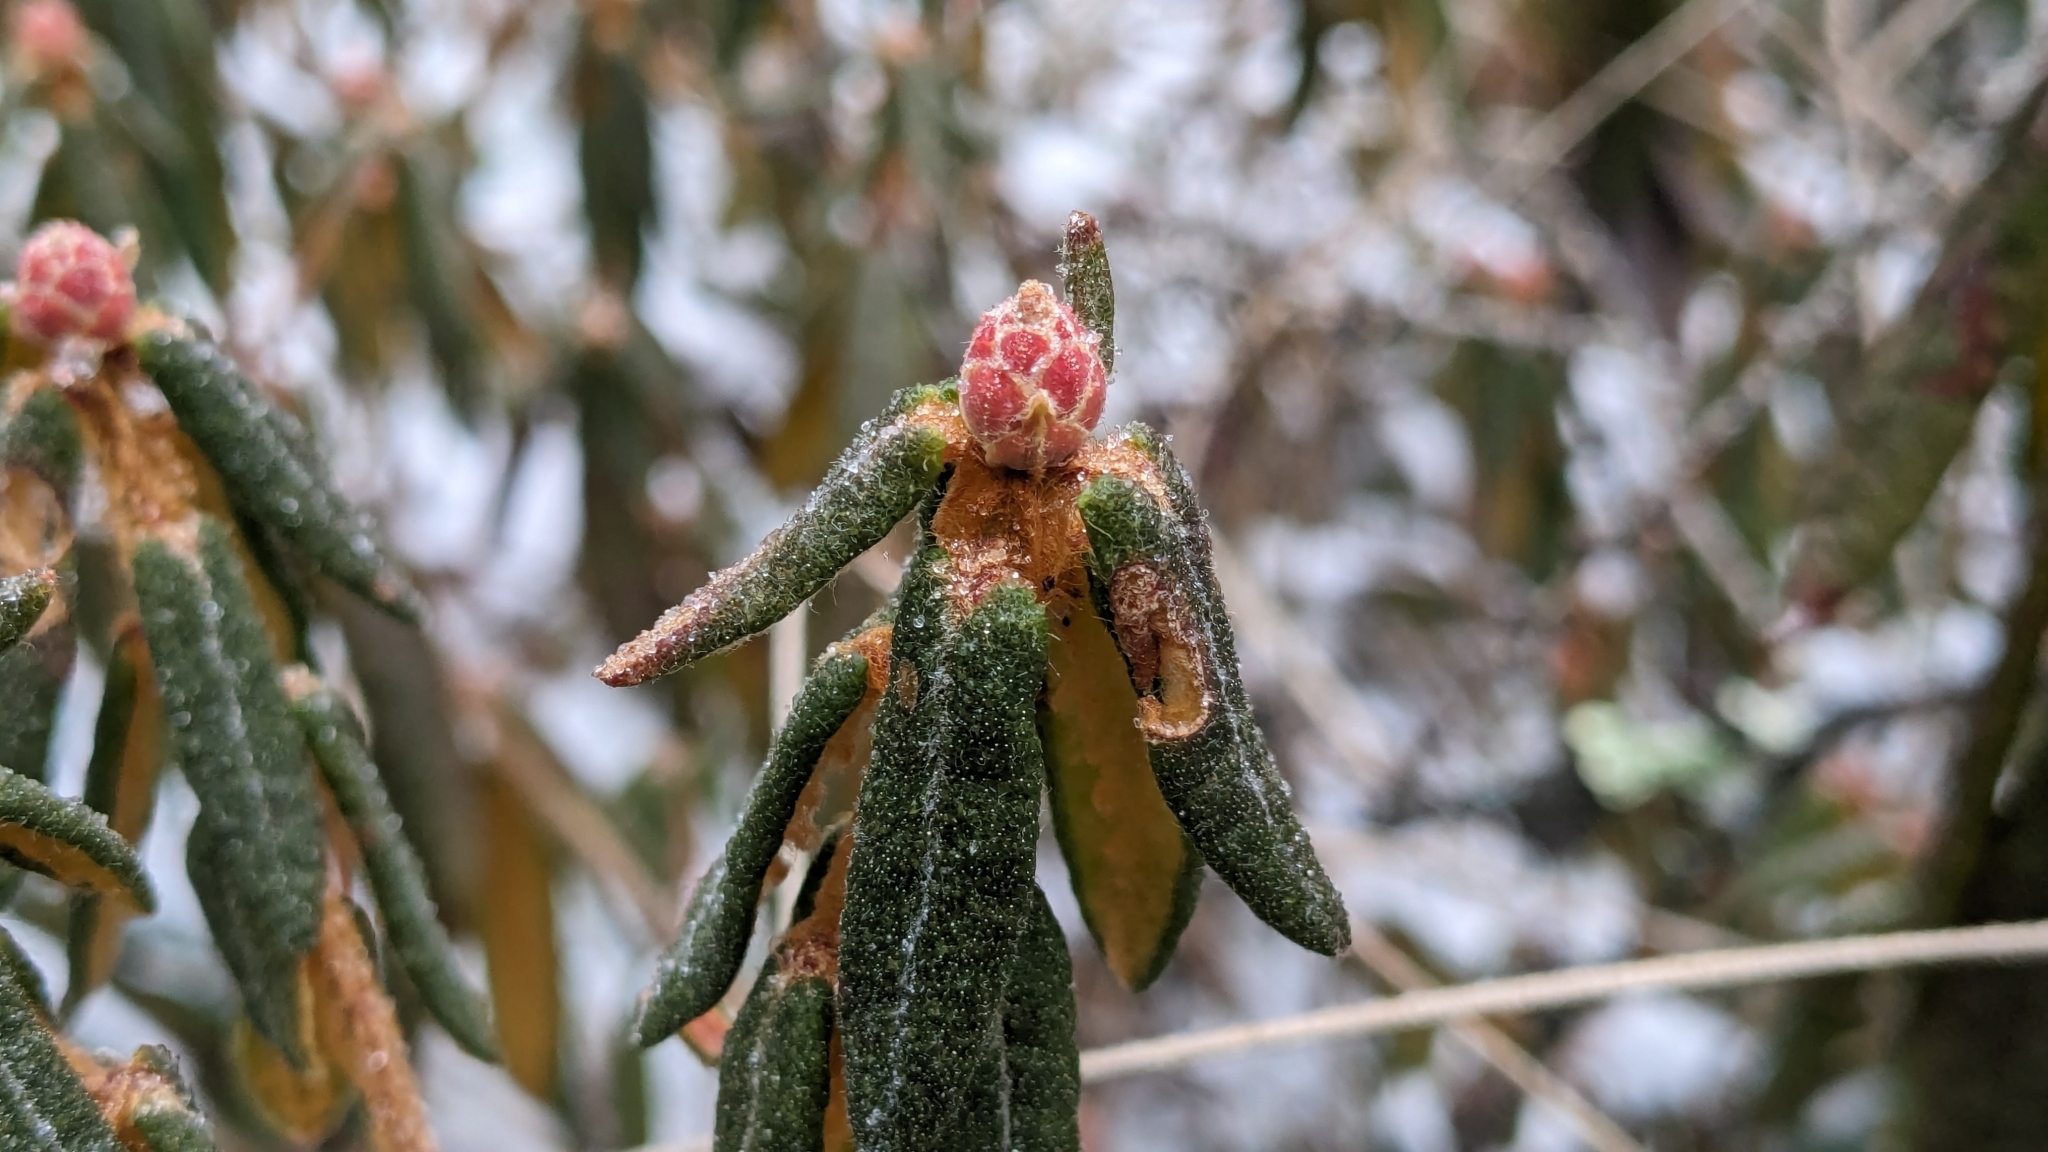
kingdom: Plantae
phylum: Tracheophyta
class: Magnoliopsida
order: Ericales
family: Ericaceae
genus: Rhododendron
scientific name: Rhododendron groenlandicum
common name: Bog labrador tea
